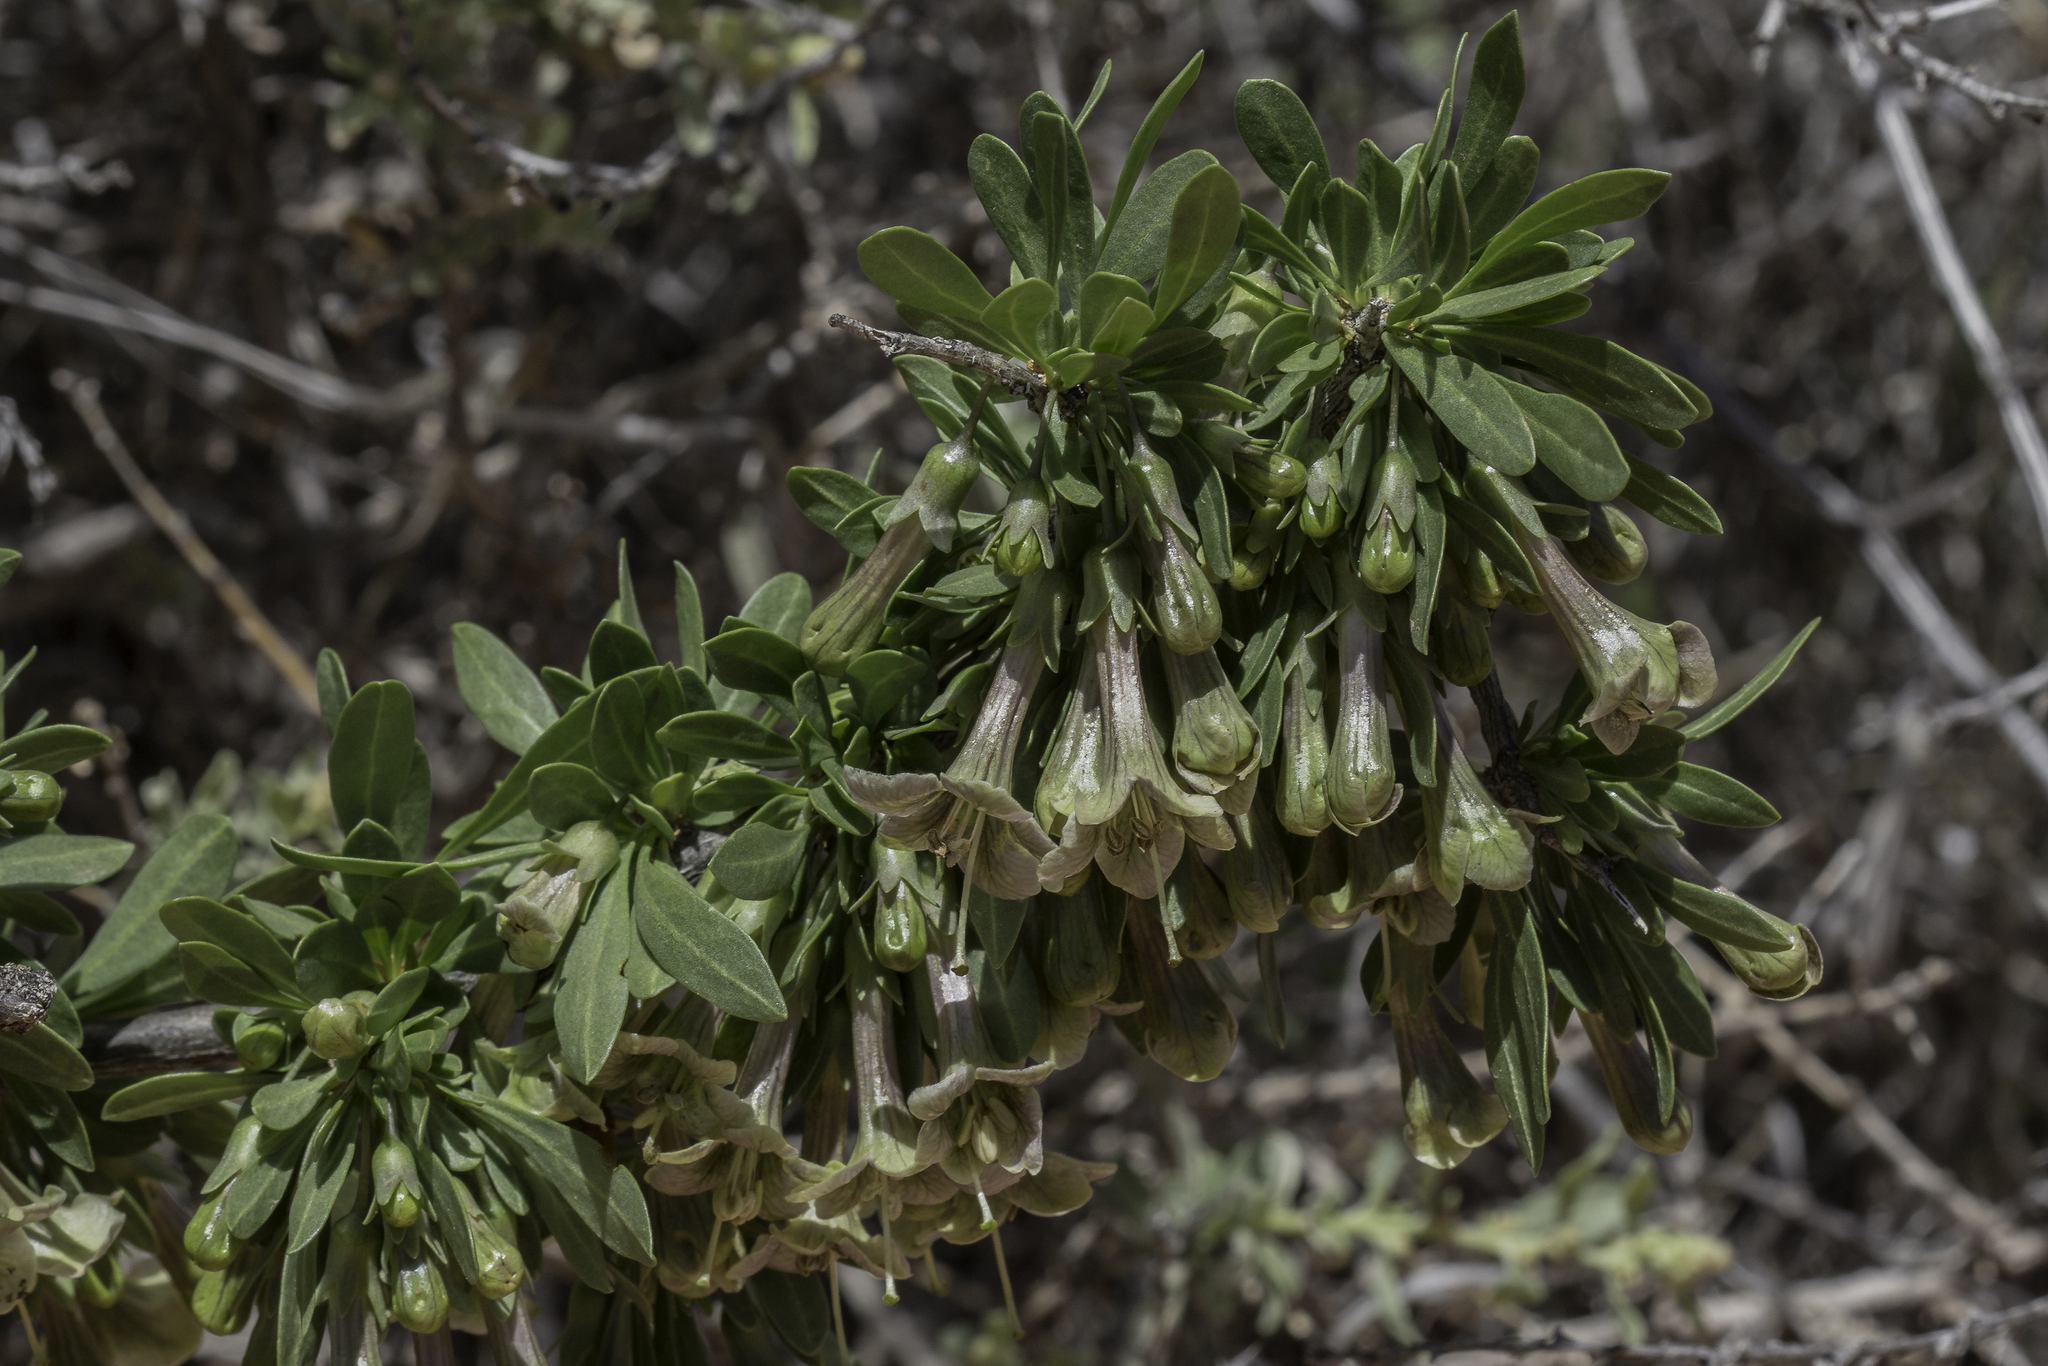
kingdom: Plantae
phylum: Tracheophyta
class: Magnoliopsida
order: Solanales
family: Solanaceae
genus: Lycium
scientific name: Lycium pallidum
